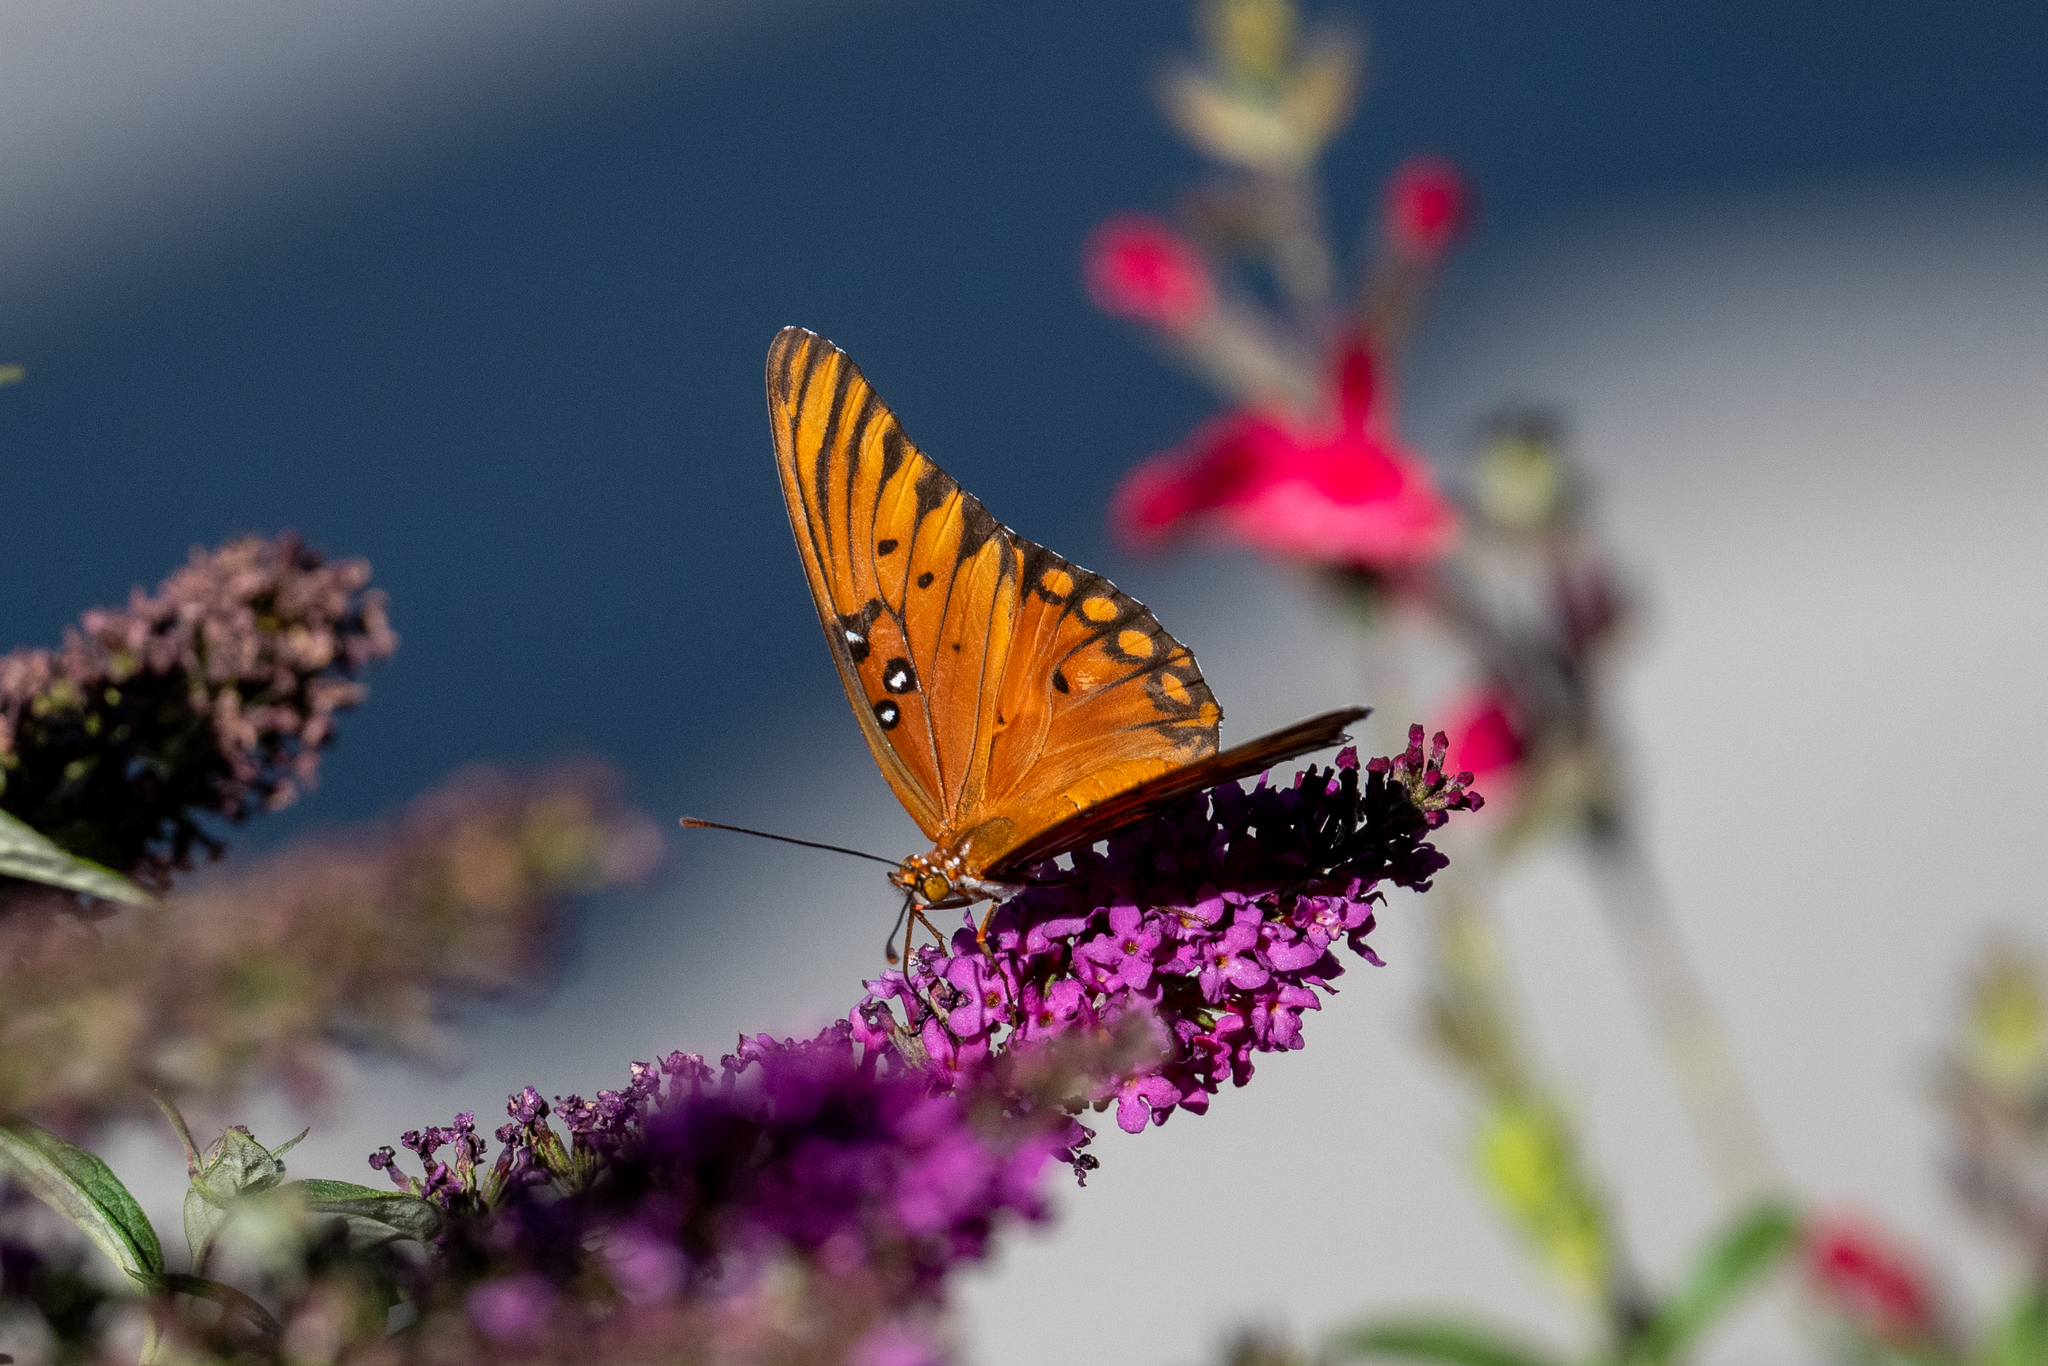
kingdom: Animalia
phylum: Arthropoda
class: Insecta
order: Lepidoptera
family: Nymphalidae
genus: Dione
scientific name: Dione vanillae
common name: Gulf fritillary
